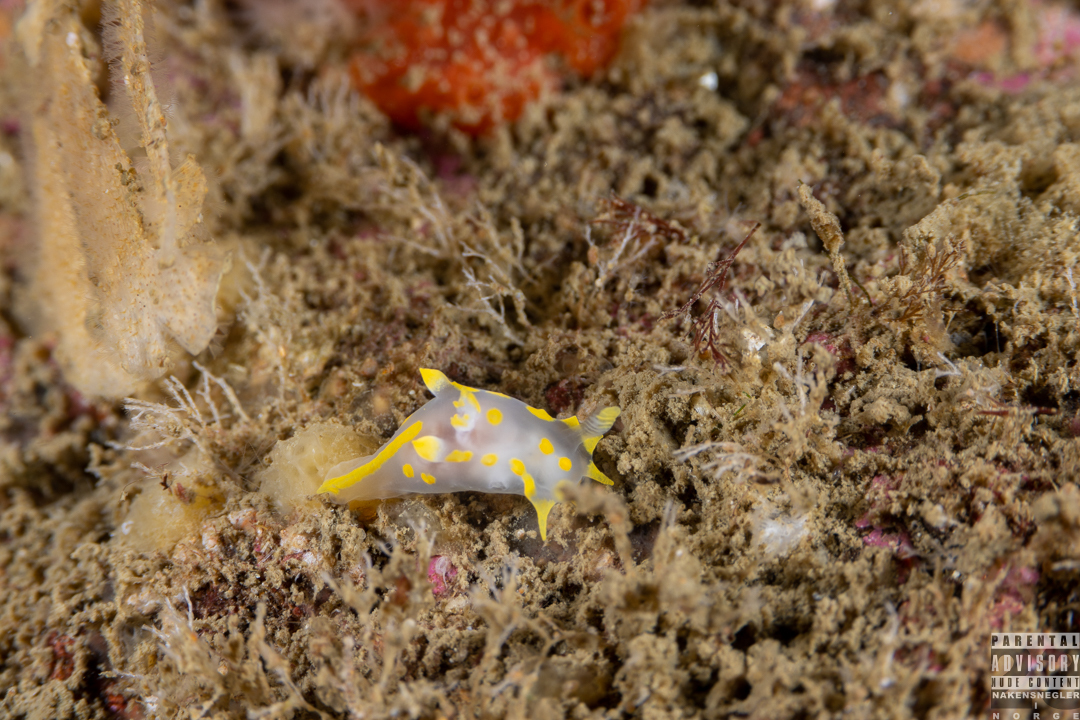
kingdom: Animalia
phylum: Mollusca
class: Gastropoda
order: Nudibranchia
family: Polyceridae
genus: Polycera
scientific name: Polycera quadrilineata
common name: Four-striped polycera
